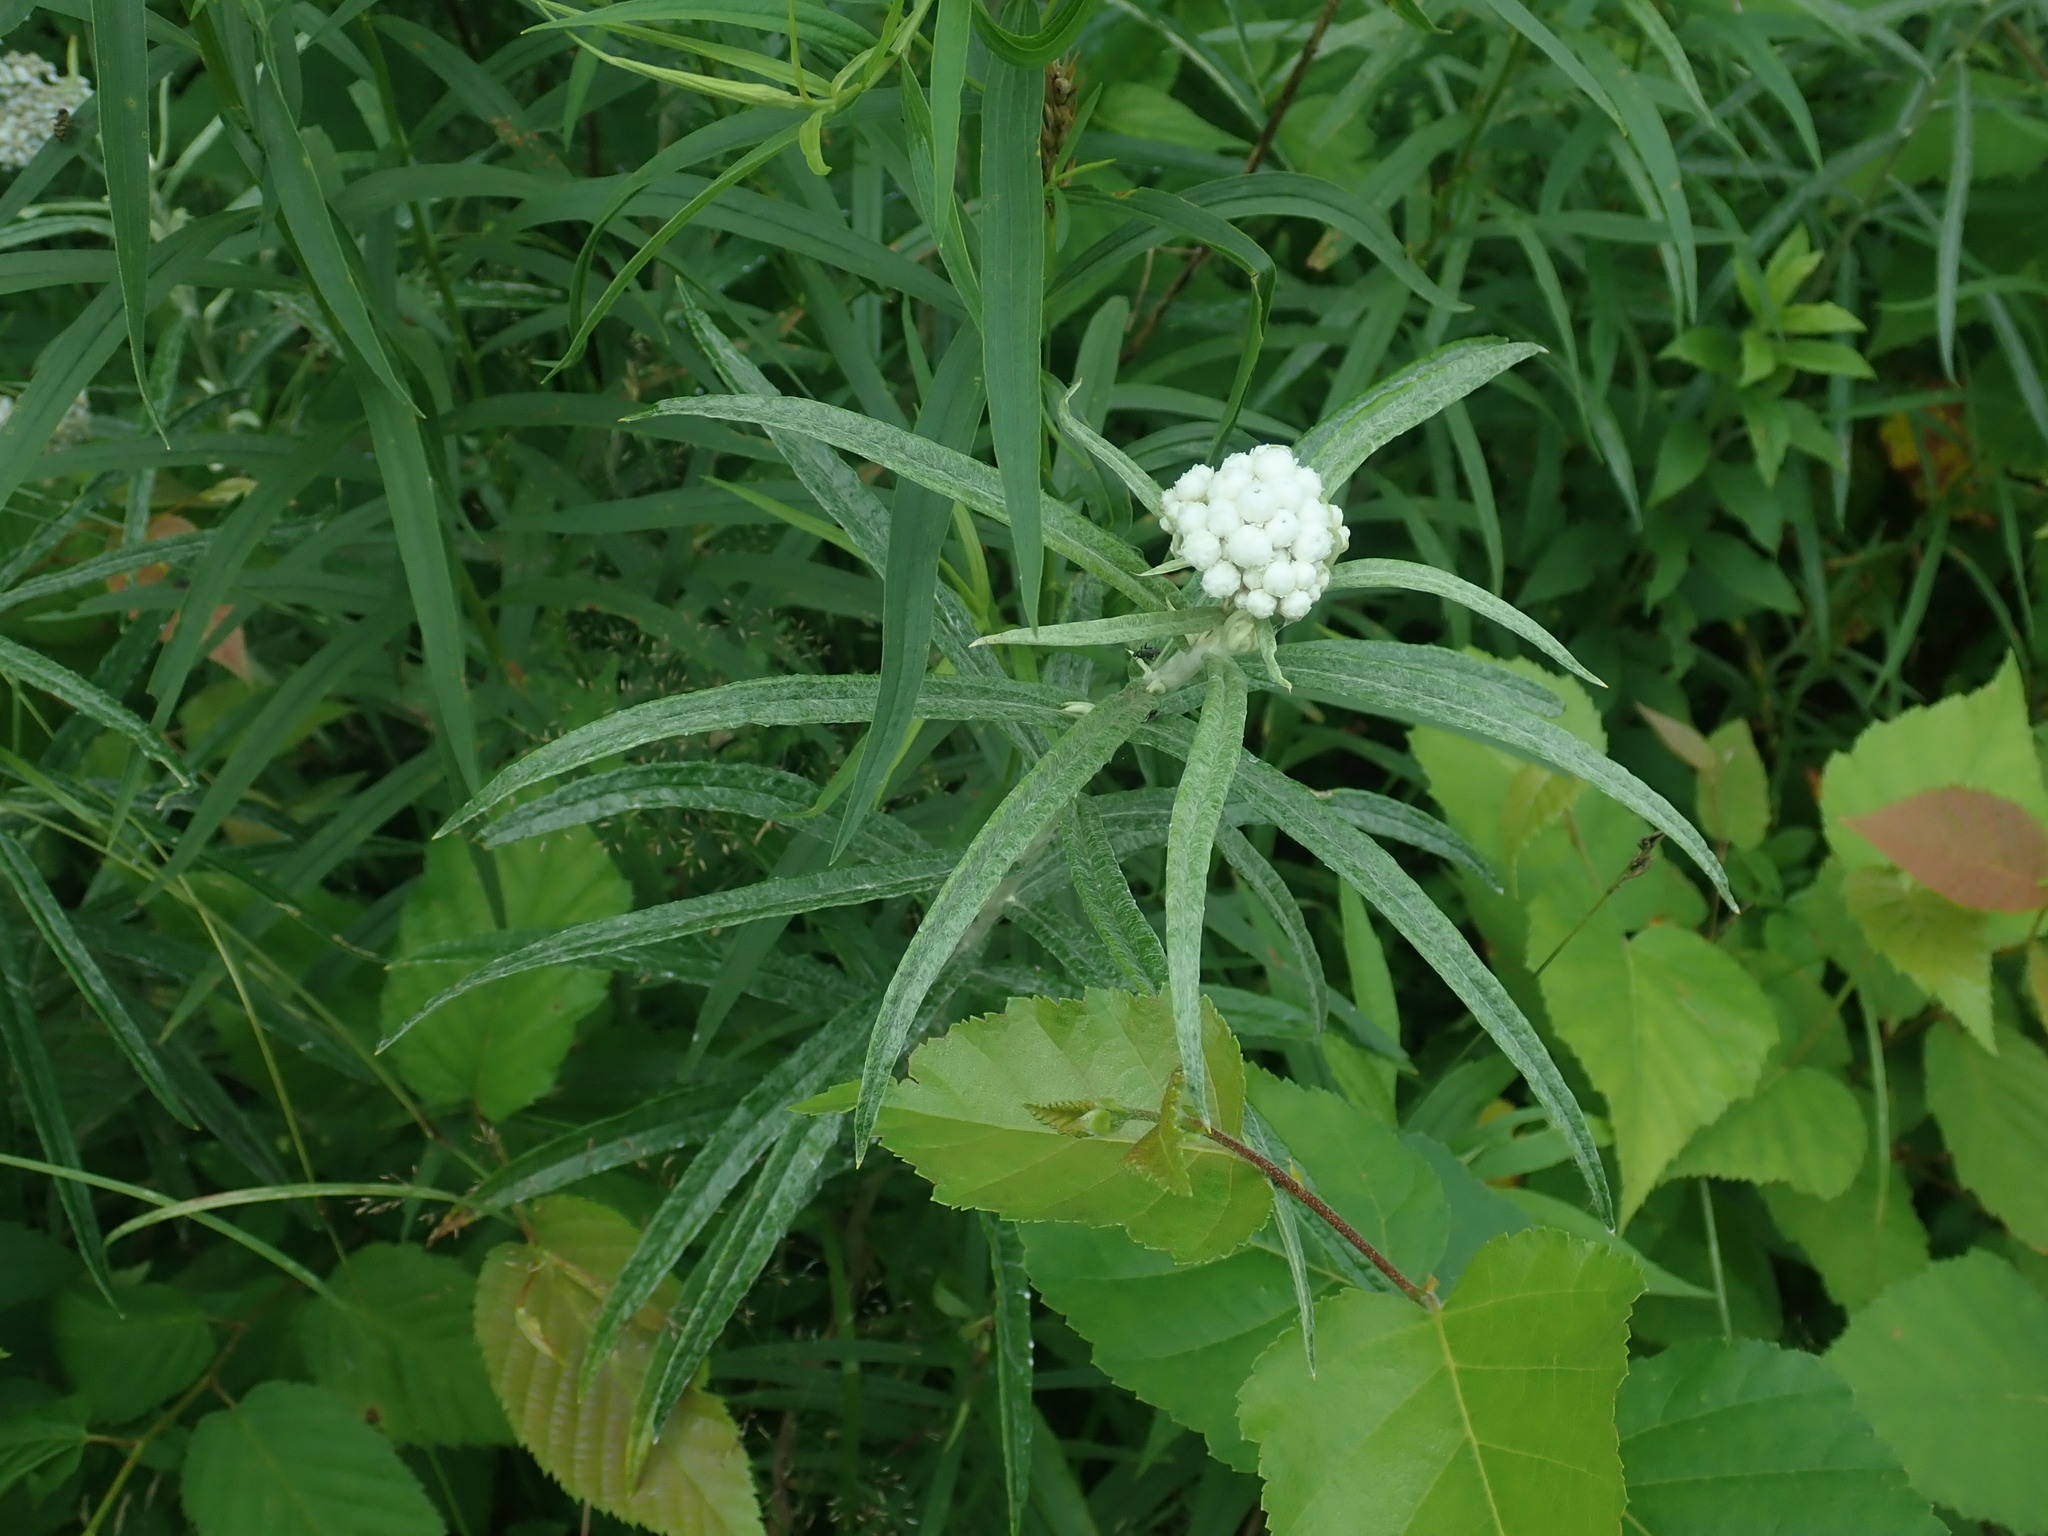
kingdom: Plantae
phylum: Tracheophyta
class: Magnoliopsida
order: Asterales
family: Asteraceae
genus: Anaphalis
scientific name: Anaphalis margaritacea
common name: Pearly everlasting
